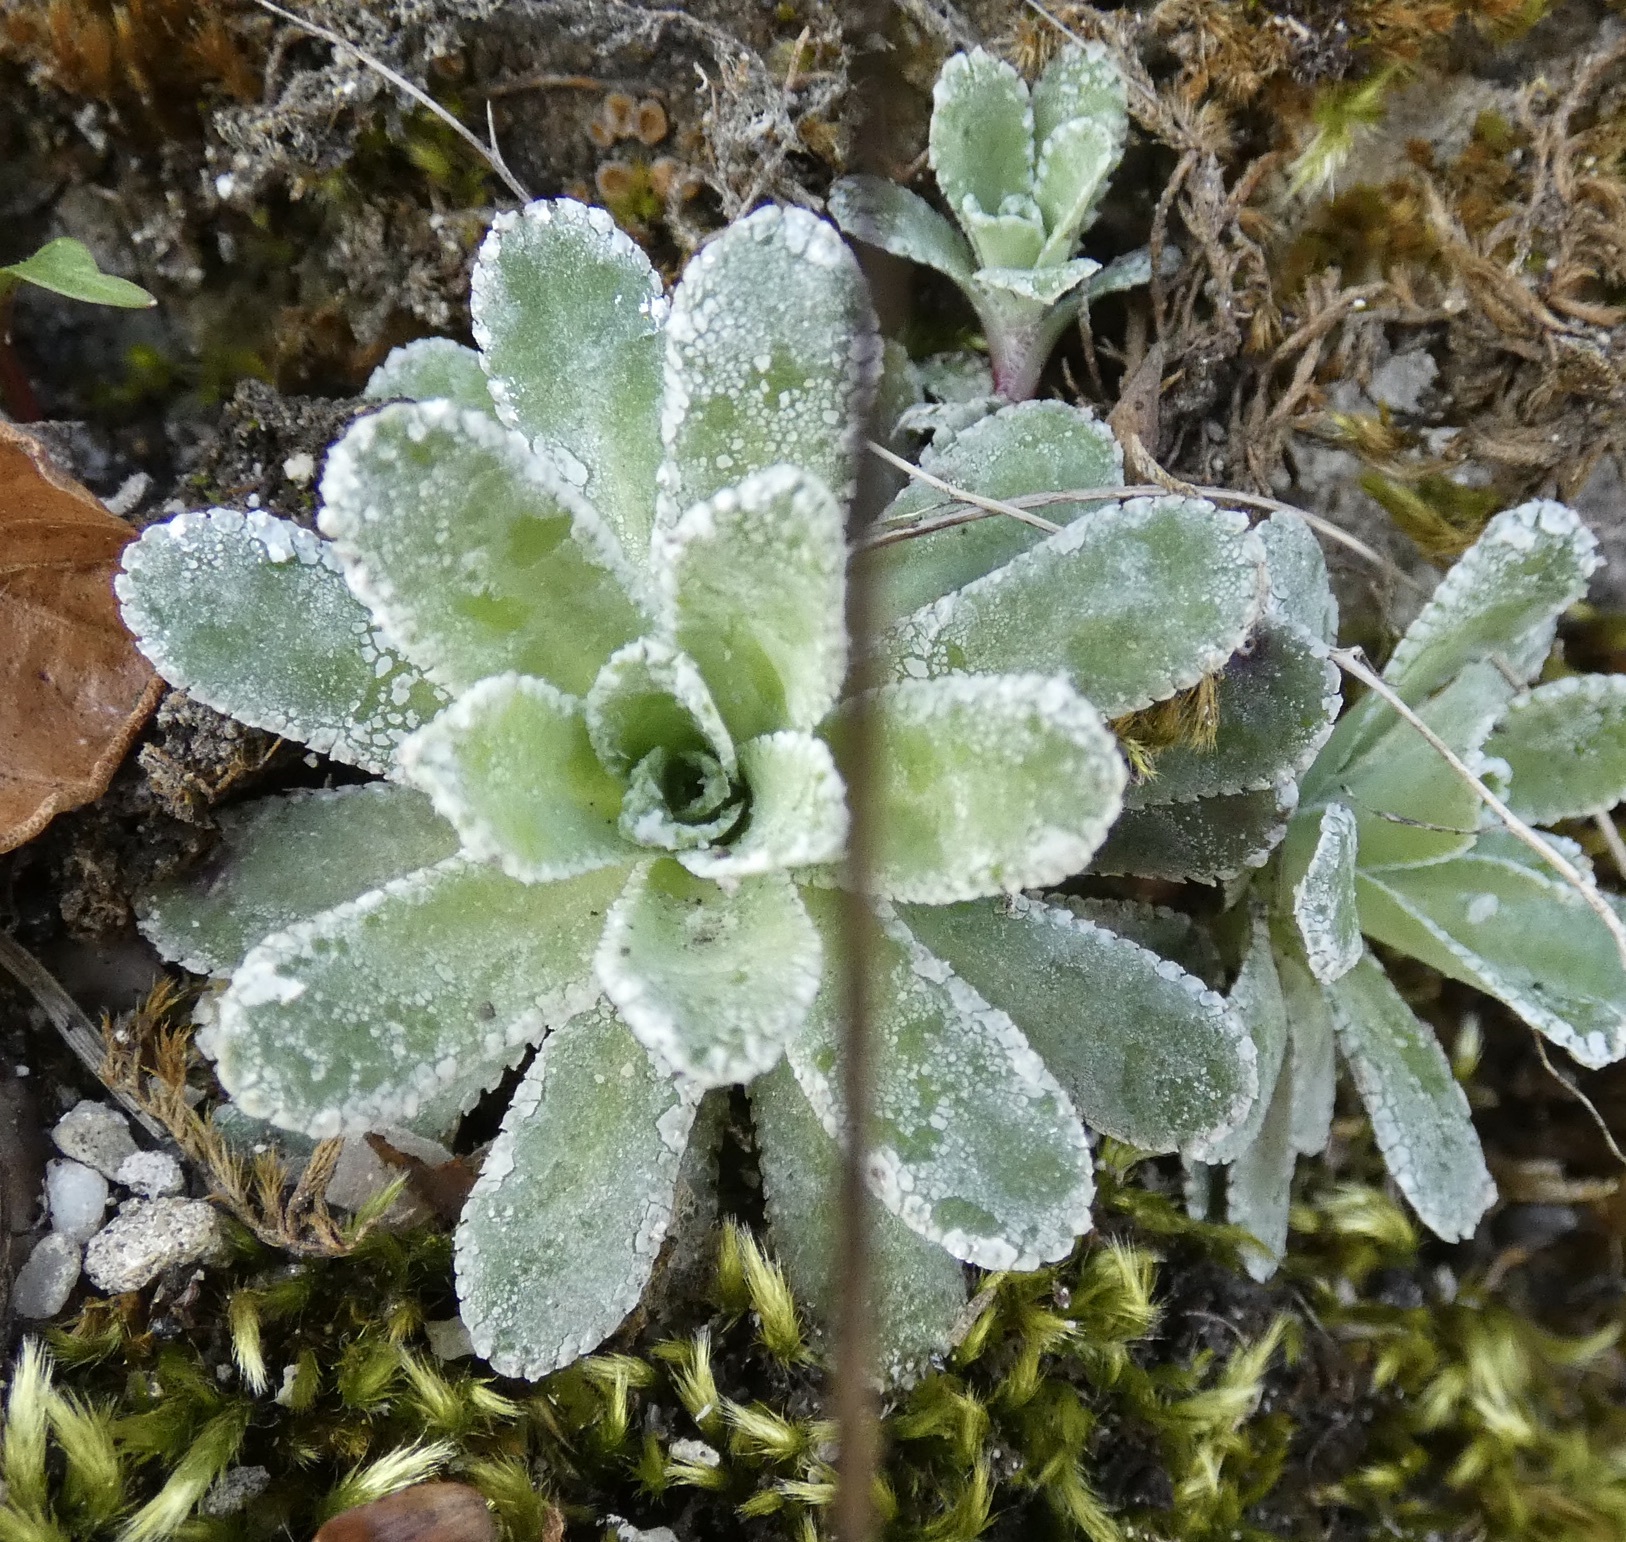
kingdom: Plantae
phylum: Tracheophyta
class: Magnoliopsida
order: Saxifragales
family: Saxifragaceae
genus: Saxifraga
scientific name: Saxifraga paniculata
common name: Livelong saxifrage
